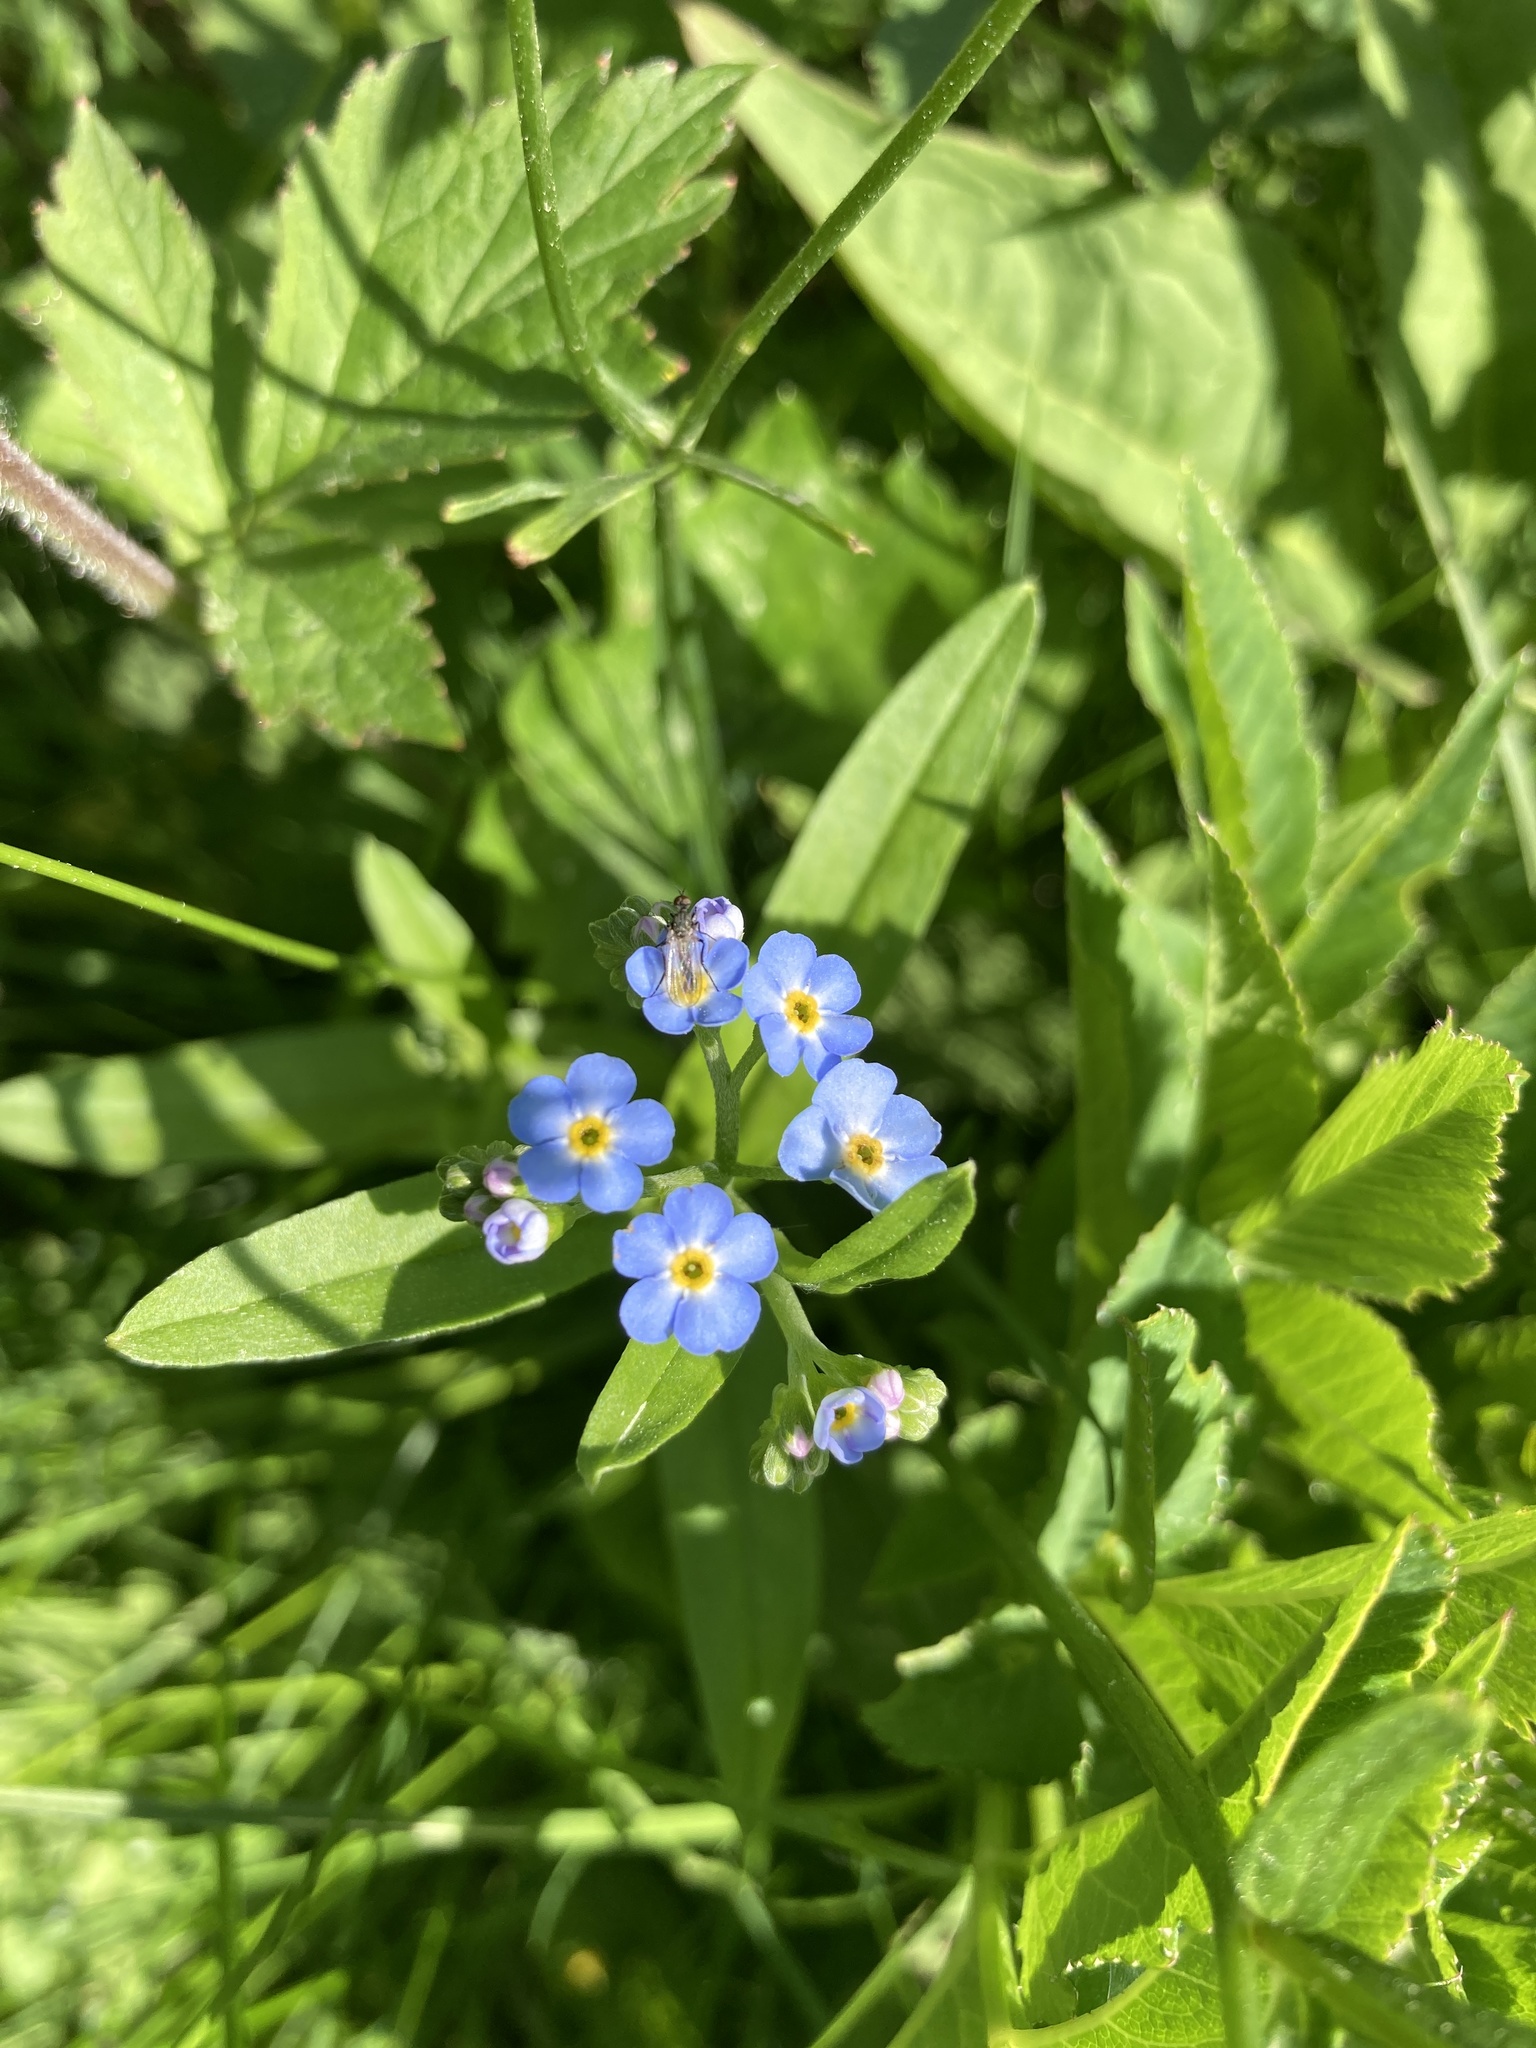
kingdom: Plantae
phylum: Tracheophyta
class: Magnoliopsida
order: Boraginales
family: Boraginaceae
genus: Myosotis
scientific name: Myosotis scorpioides
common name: Water forget-me-not
